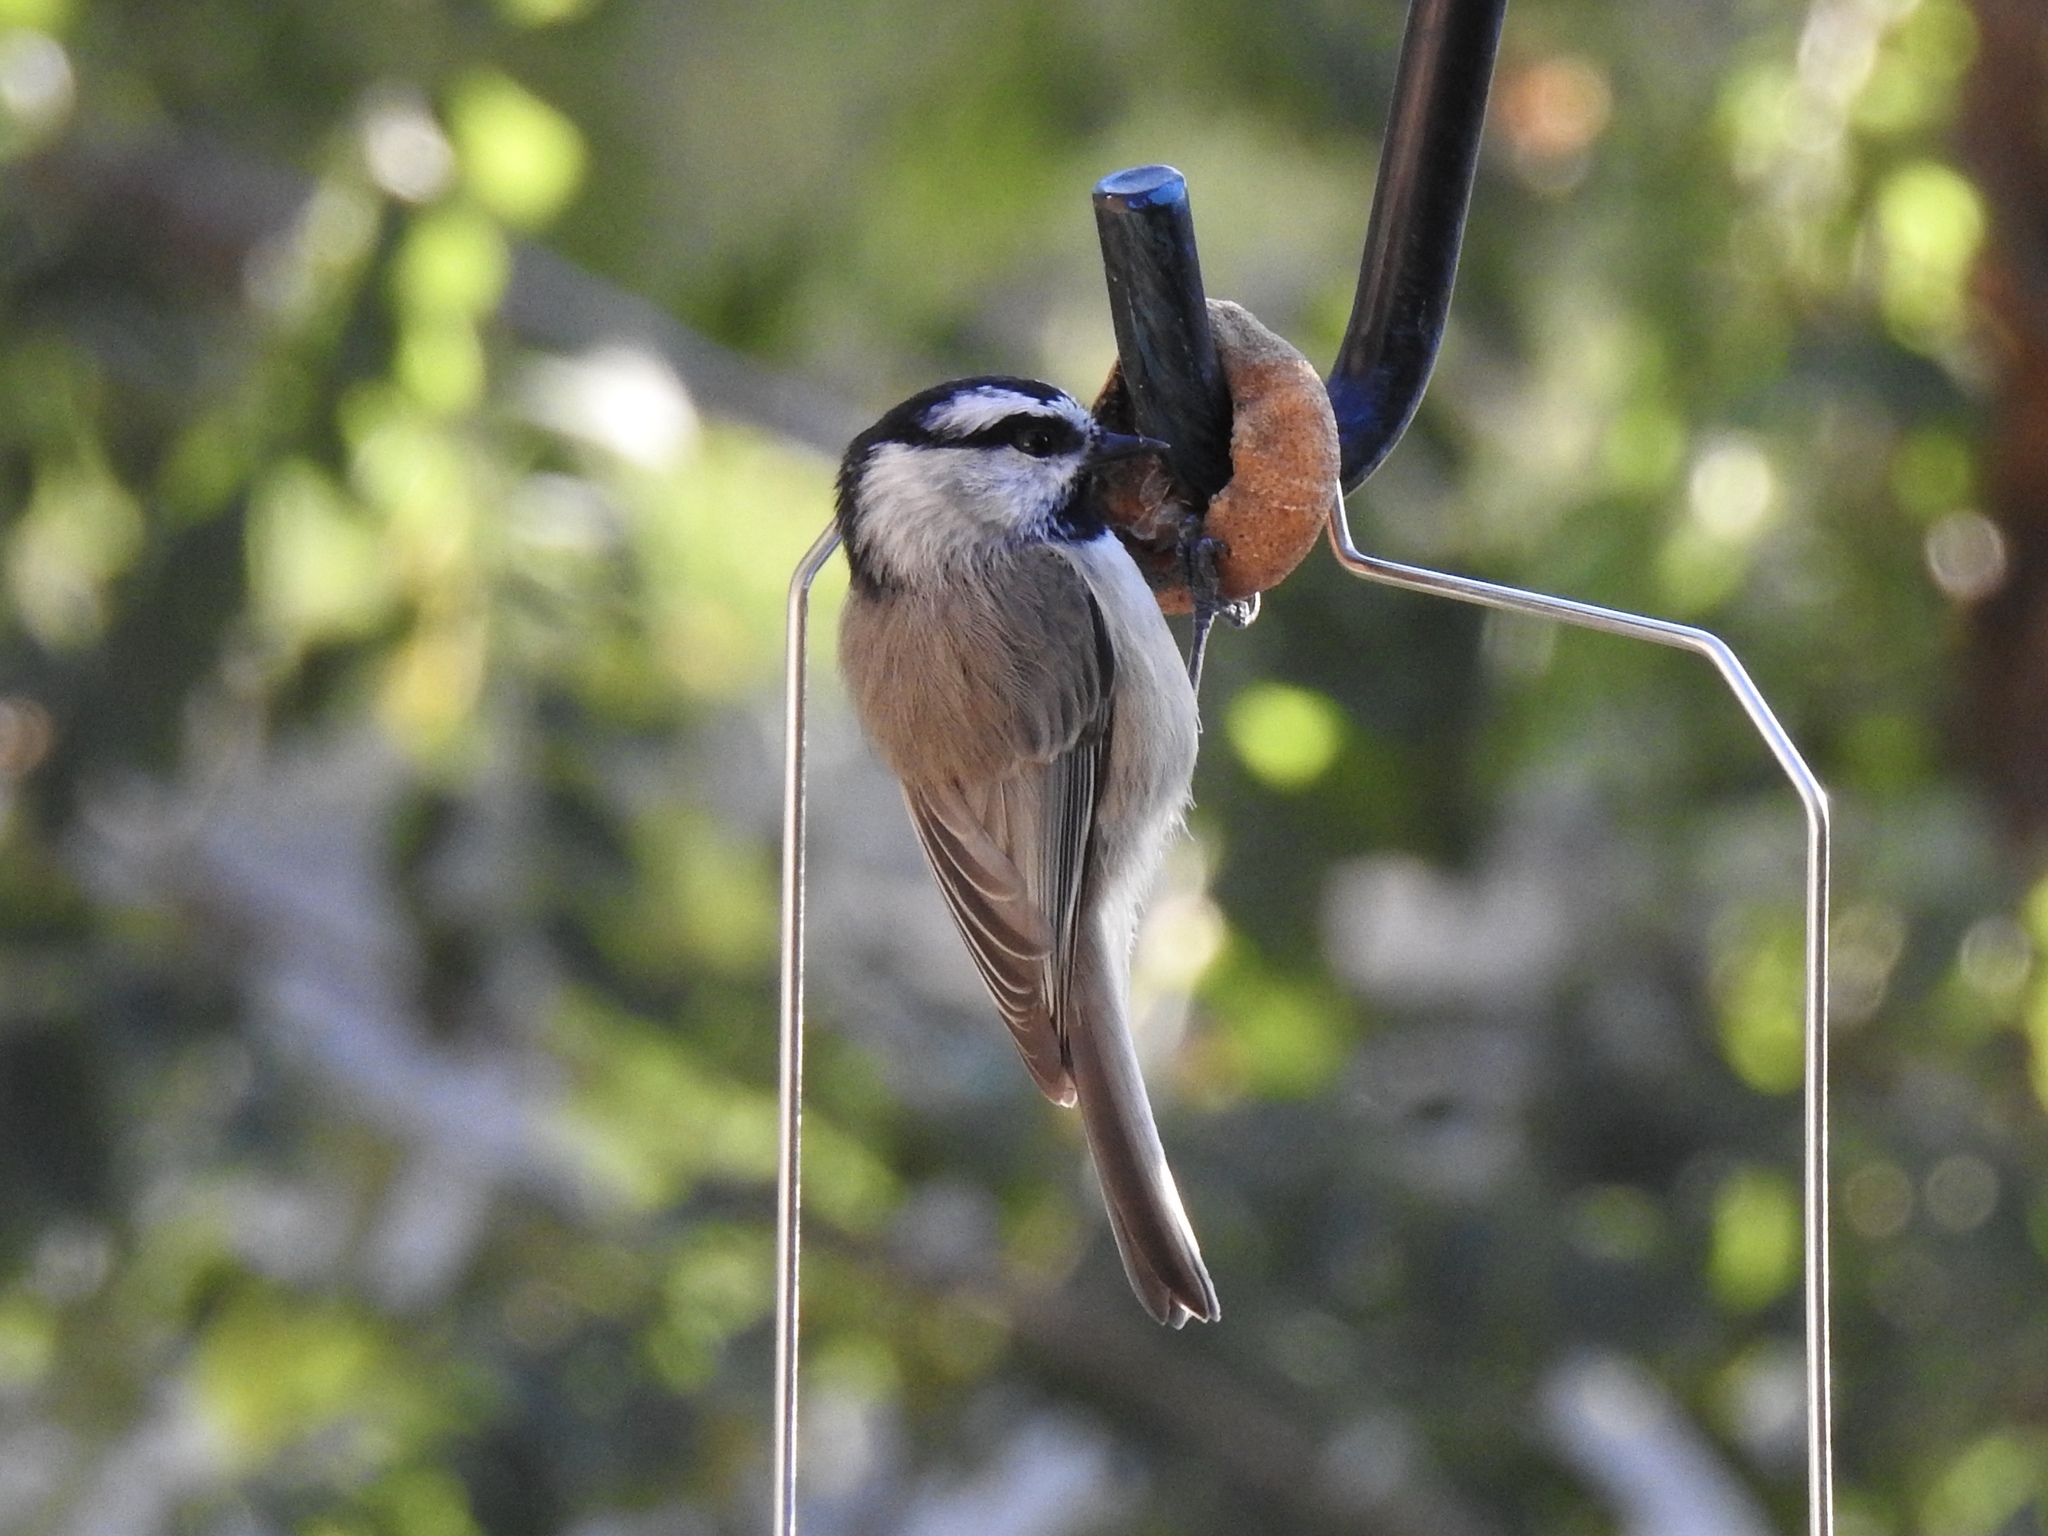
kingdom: Animalia
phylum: Chordata
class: Aves
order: Passeriformes
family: Paridae
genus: Poecile
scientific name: Poecile gambeli
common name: Mountain chickadee
